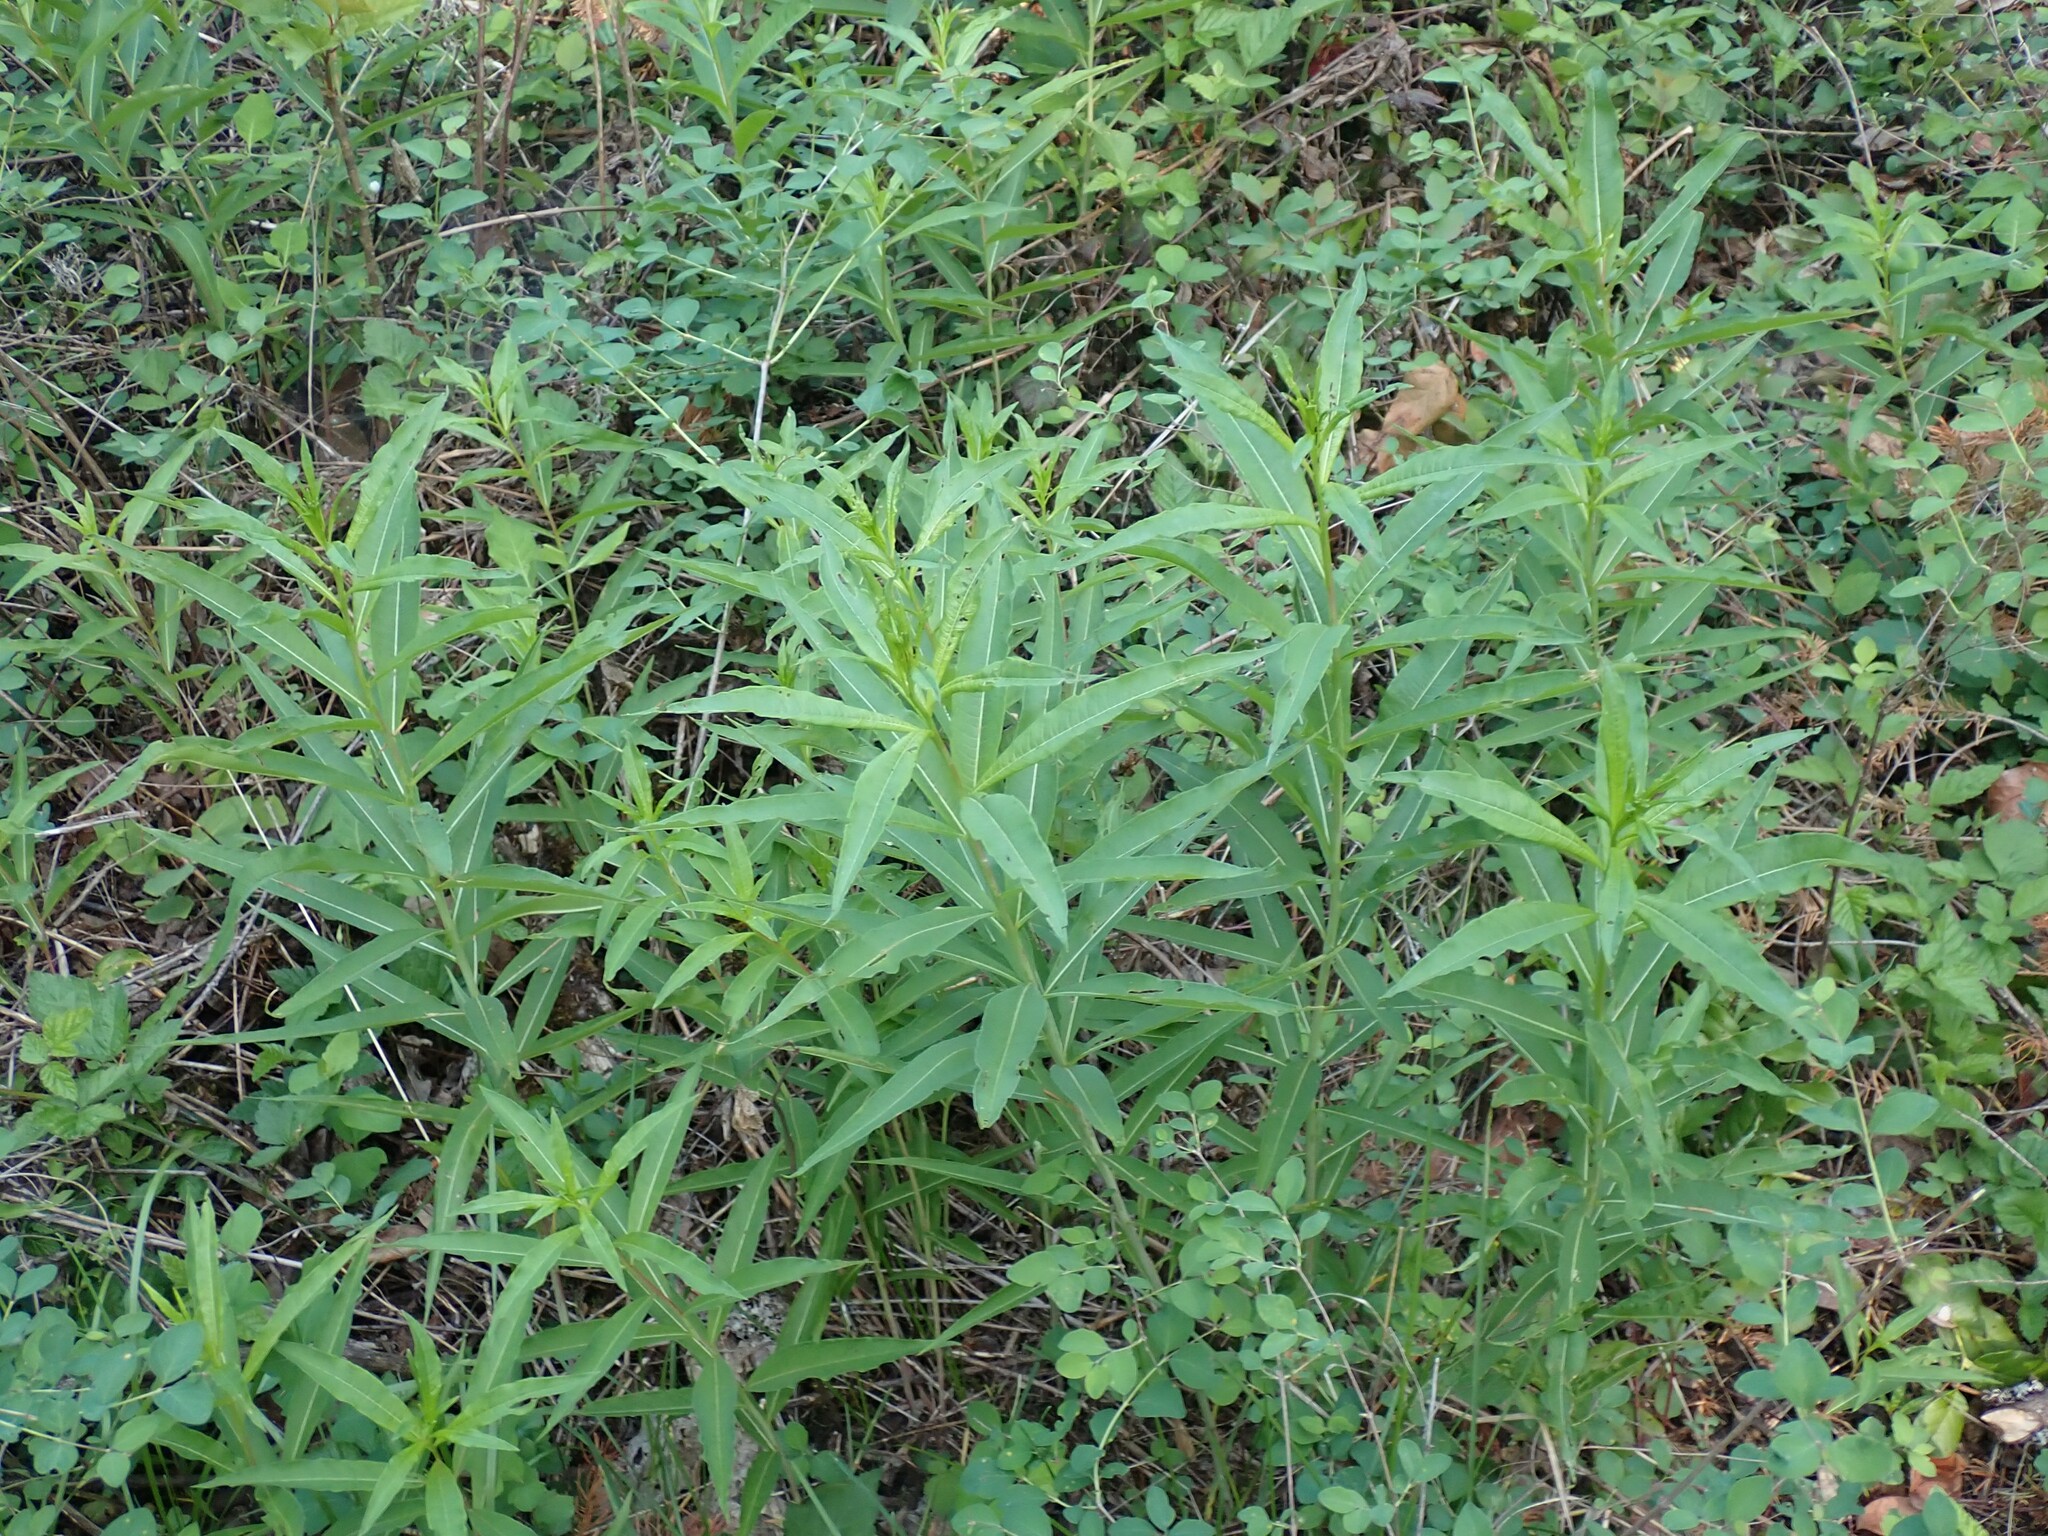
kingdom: Plantae
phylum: Tracheophyta
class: Magnoliopsida
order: Myrtales
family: Onagraceae
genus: Chamaenerion
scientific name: Chamaenerion angustifolium
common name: Fireweed
